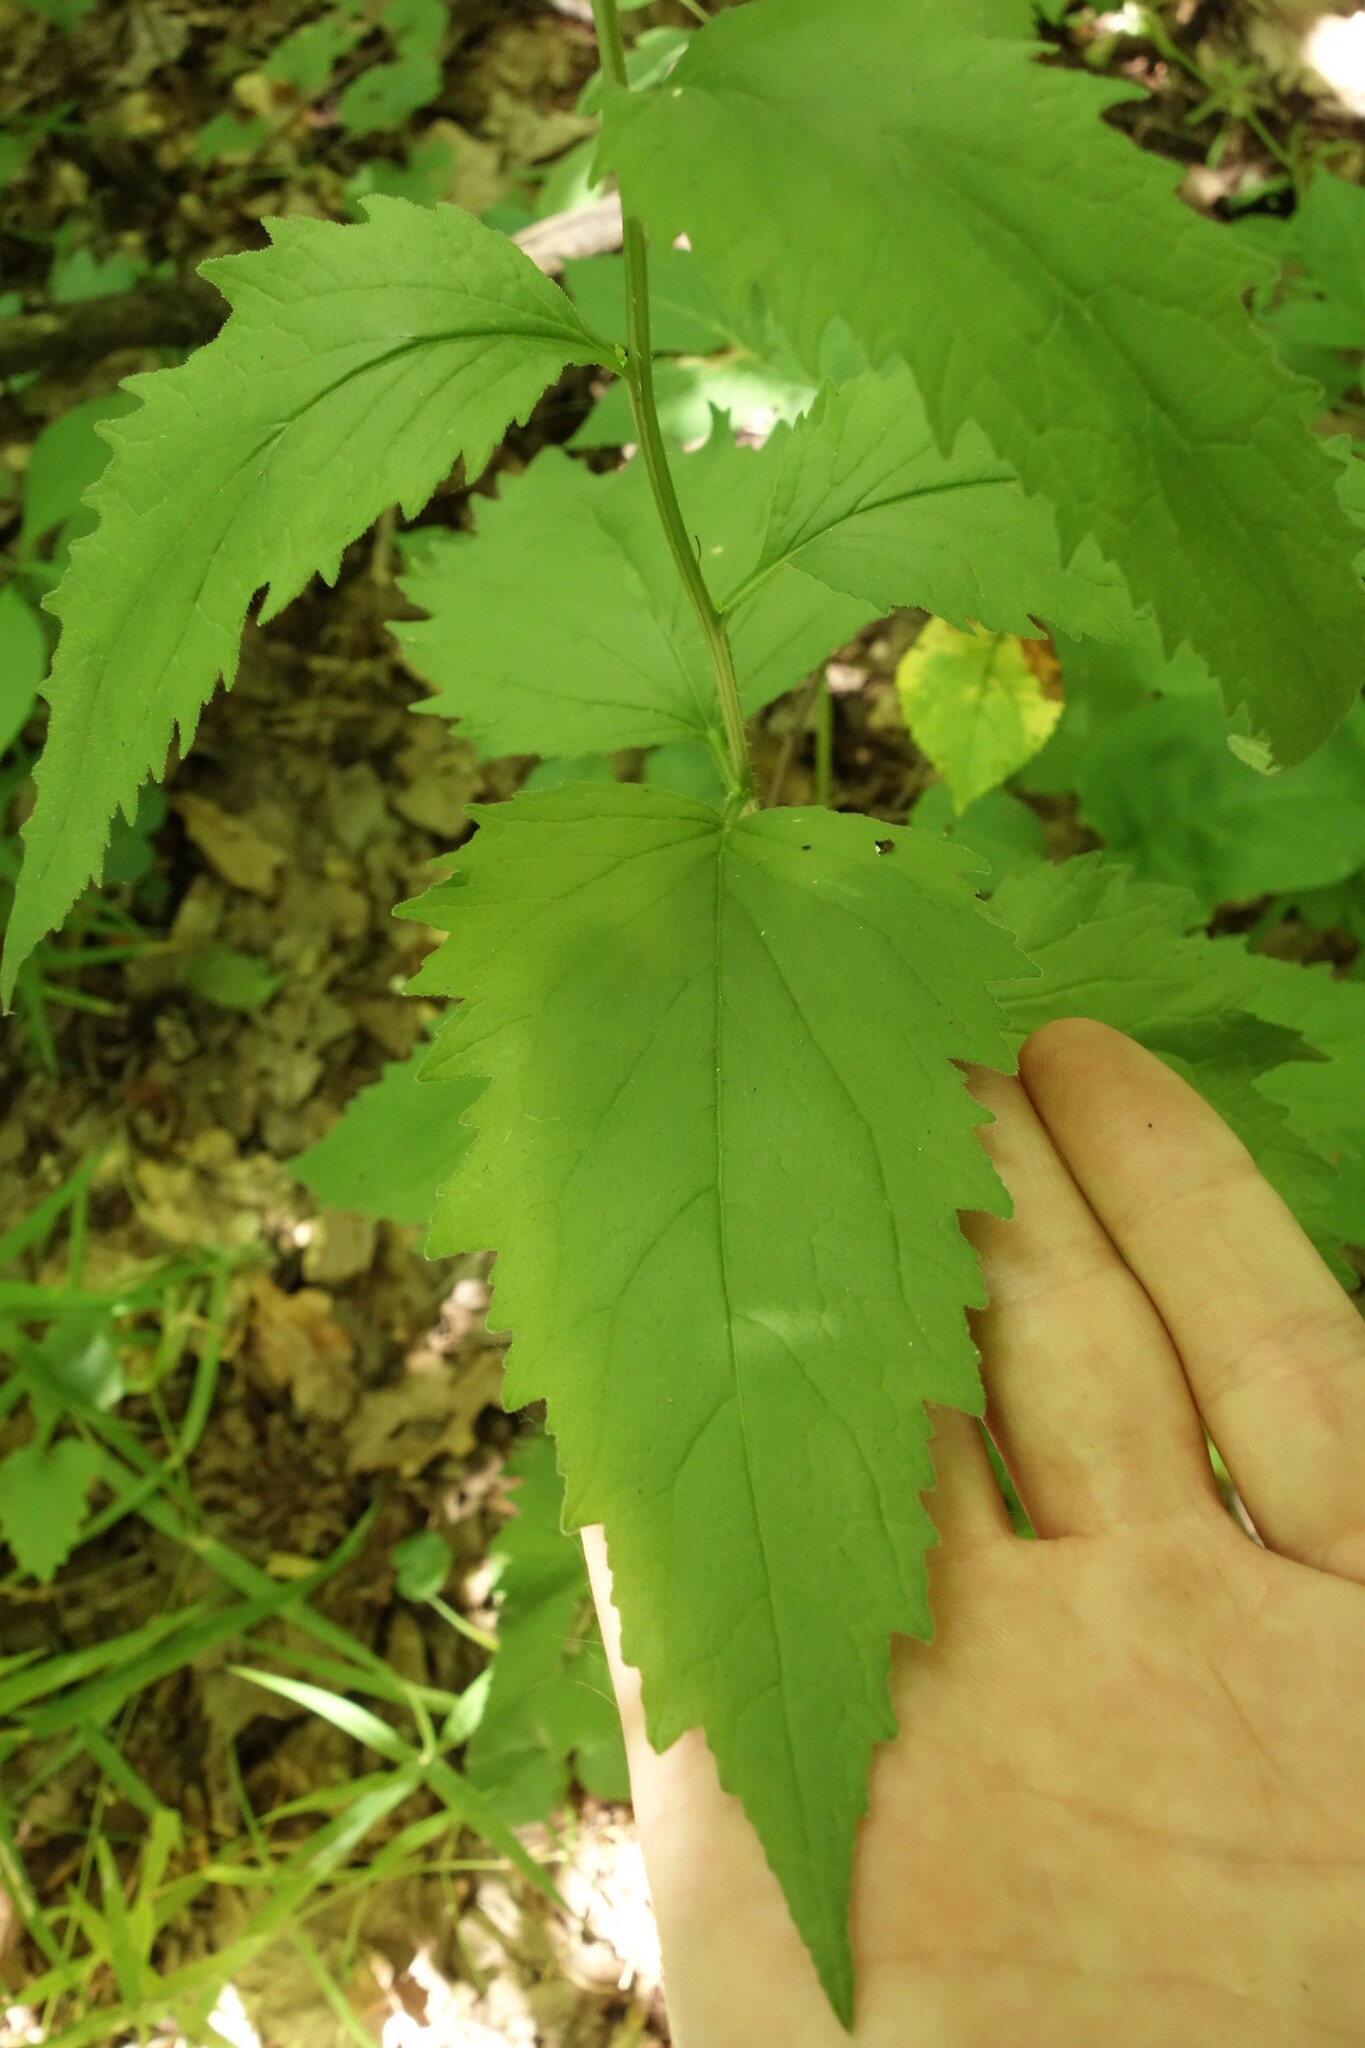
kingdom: Plantae
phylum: Tracheophyta
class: Magnoliopsida
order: Asterales
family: Campanulaceae
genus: Campanula
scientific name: Campanula trachelium
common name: Nettle-leaved bellflower
